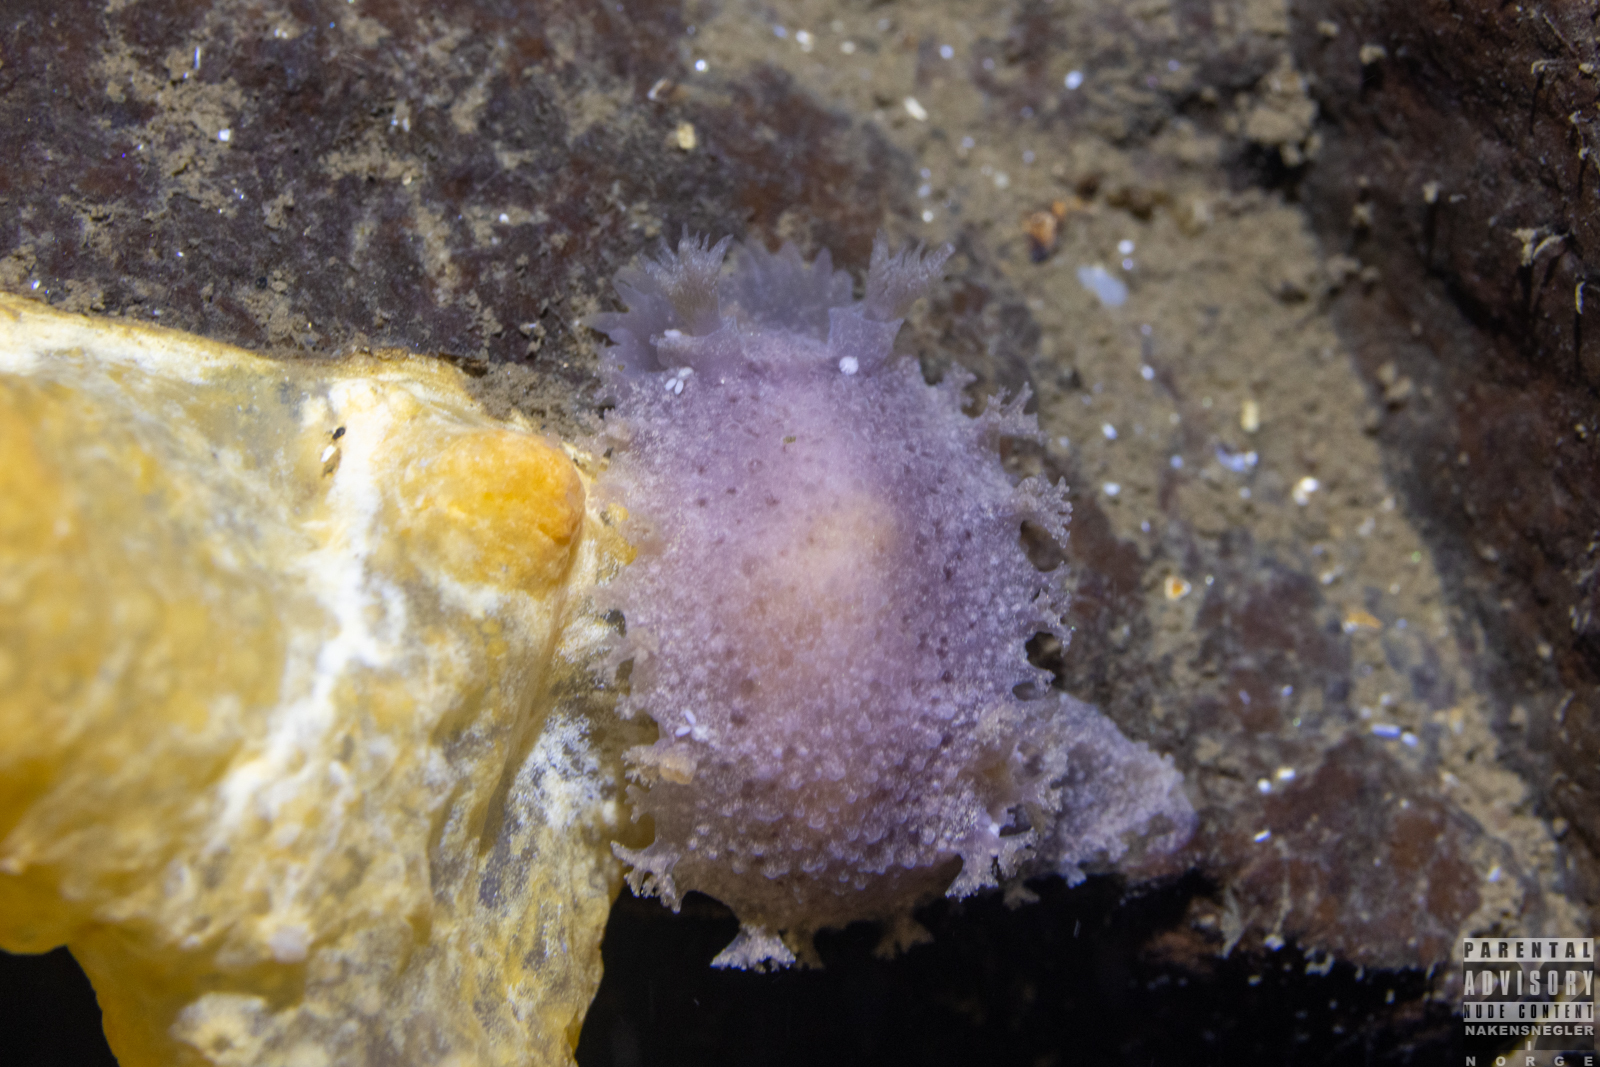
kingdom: Animalia
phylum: Mollusca
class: Gastropoda
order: Nudibranchia
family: Tritoniidae
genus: Tritonia
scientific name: Tritonia hombergii
